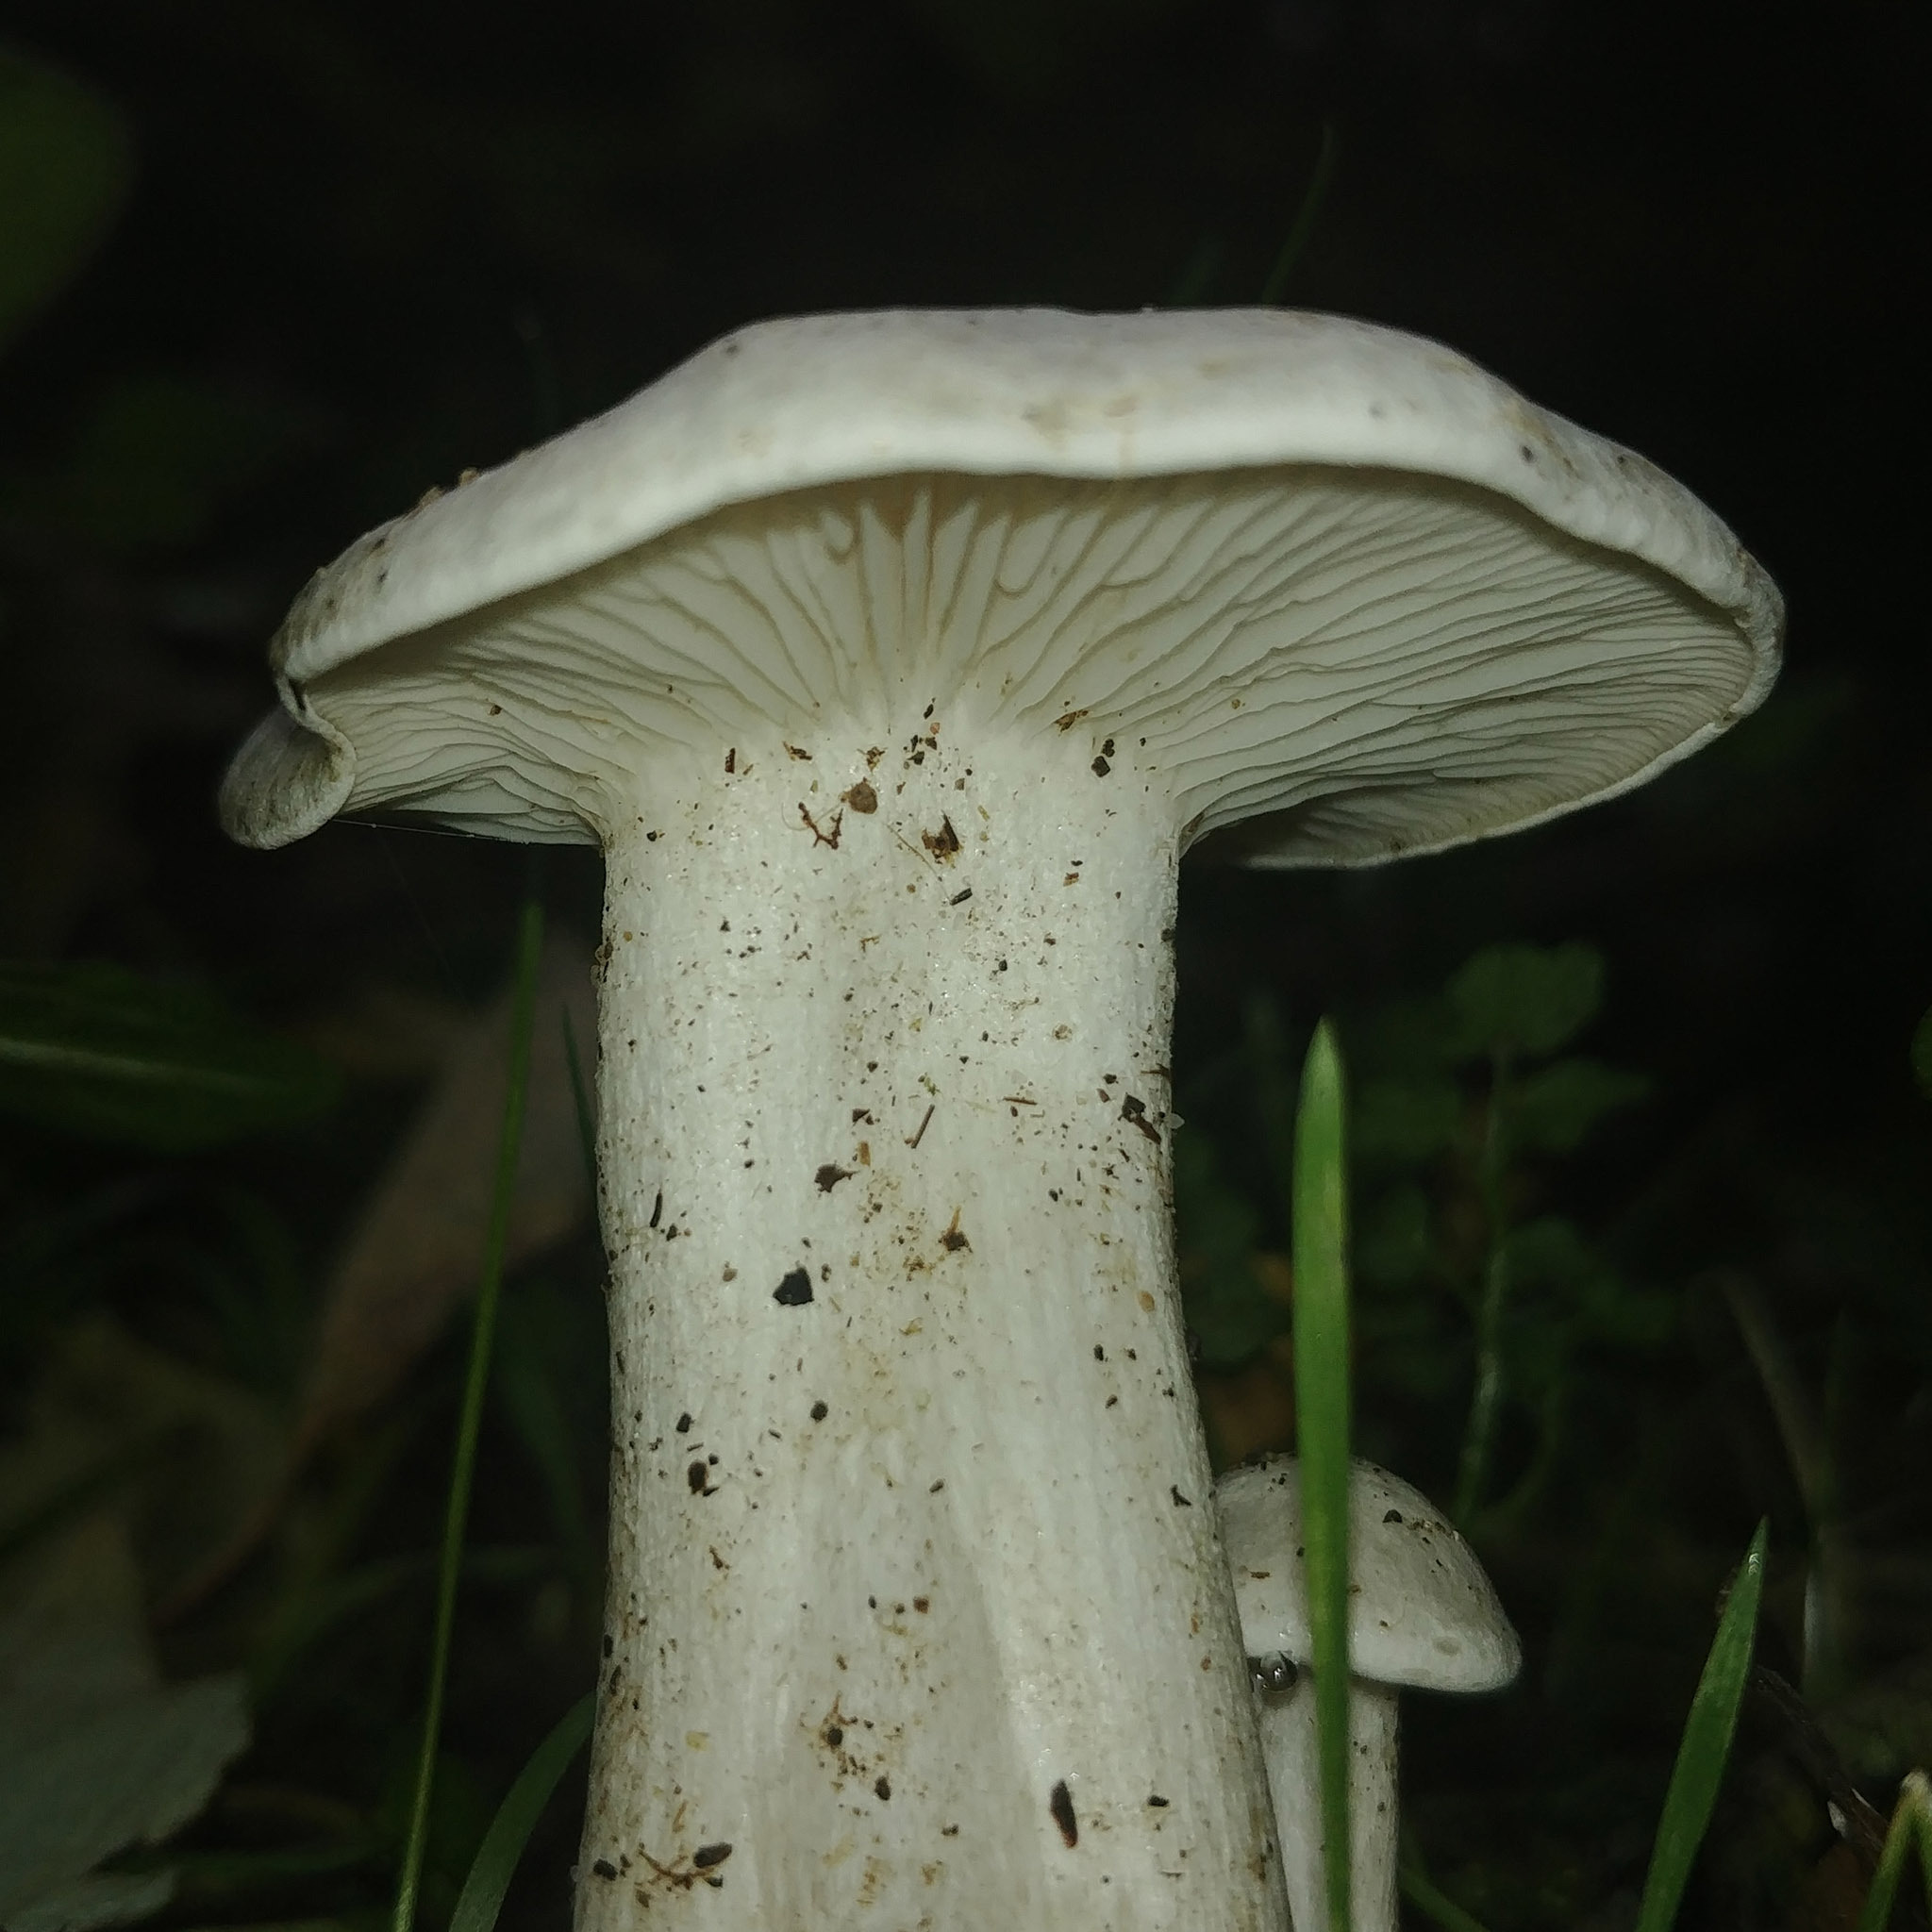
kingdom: Fungi
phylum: Basidiomycota
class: Agaricomycetes
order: Agaricales
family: Tricholomataceae
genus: Leucocybe
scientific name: Leucocybe connata
